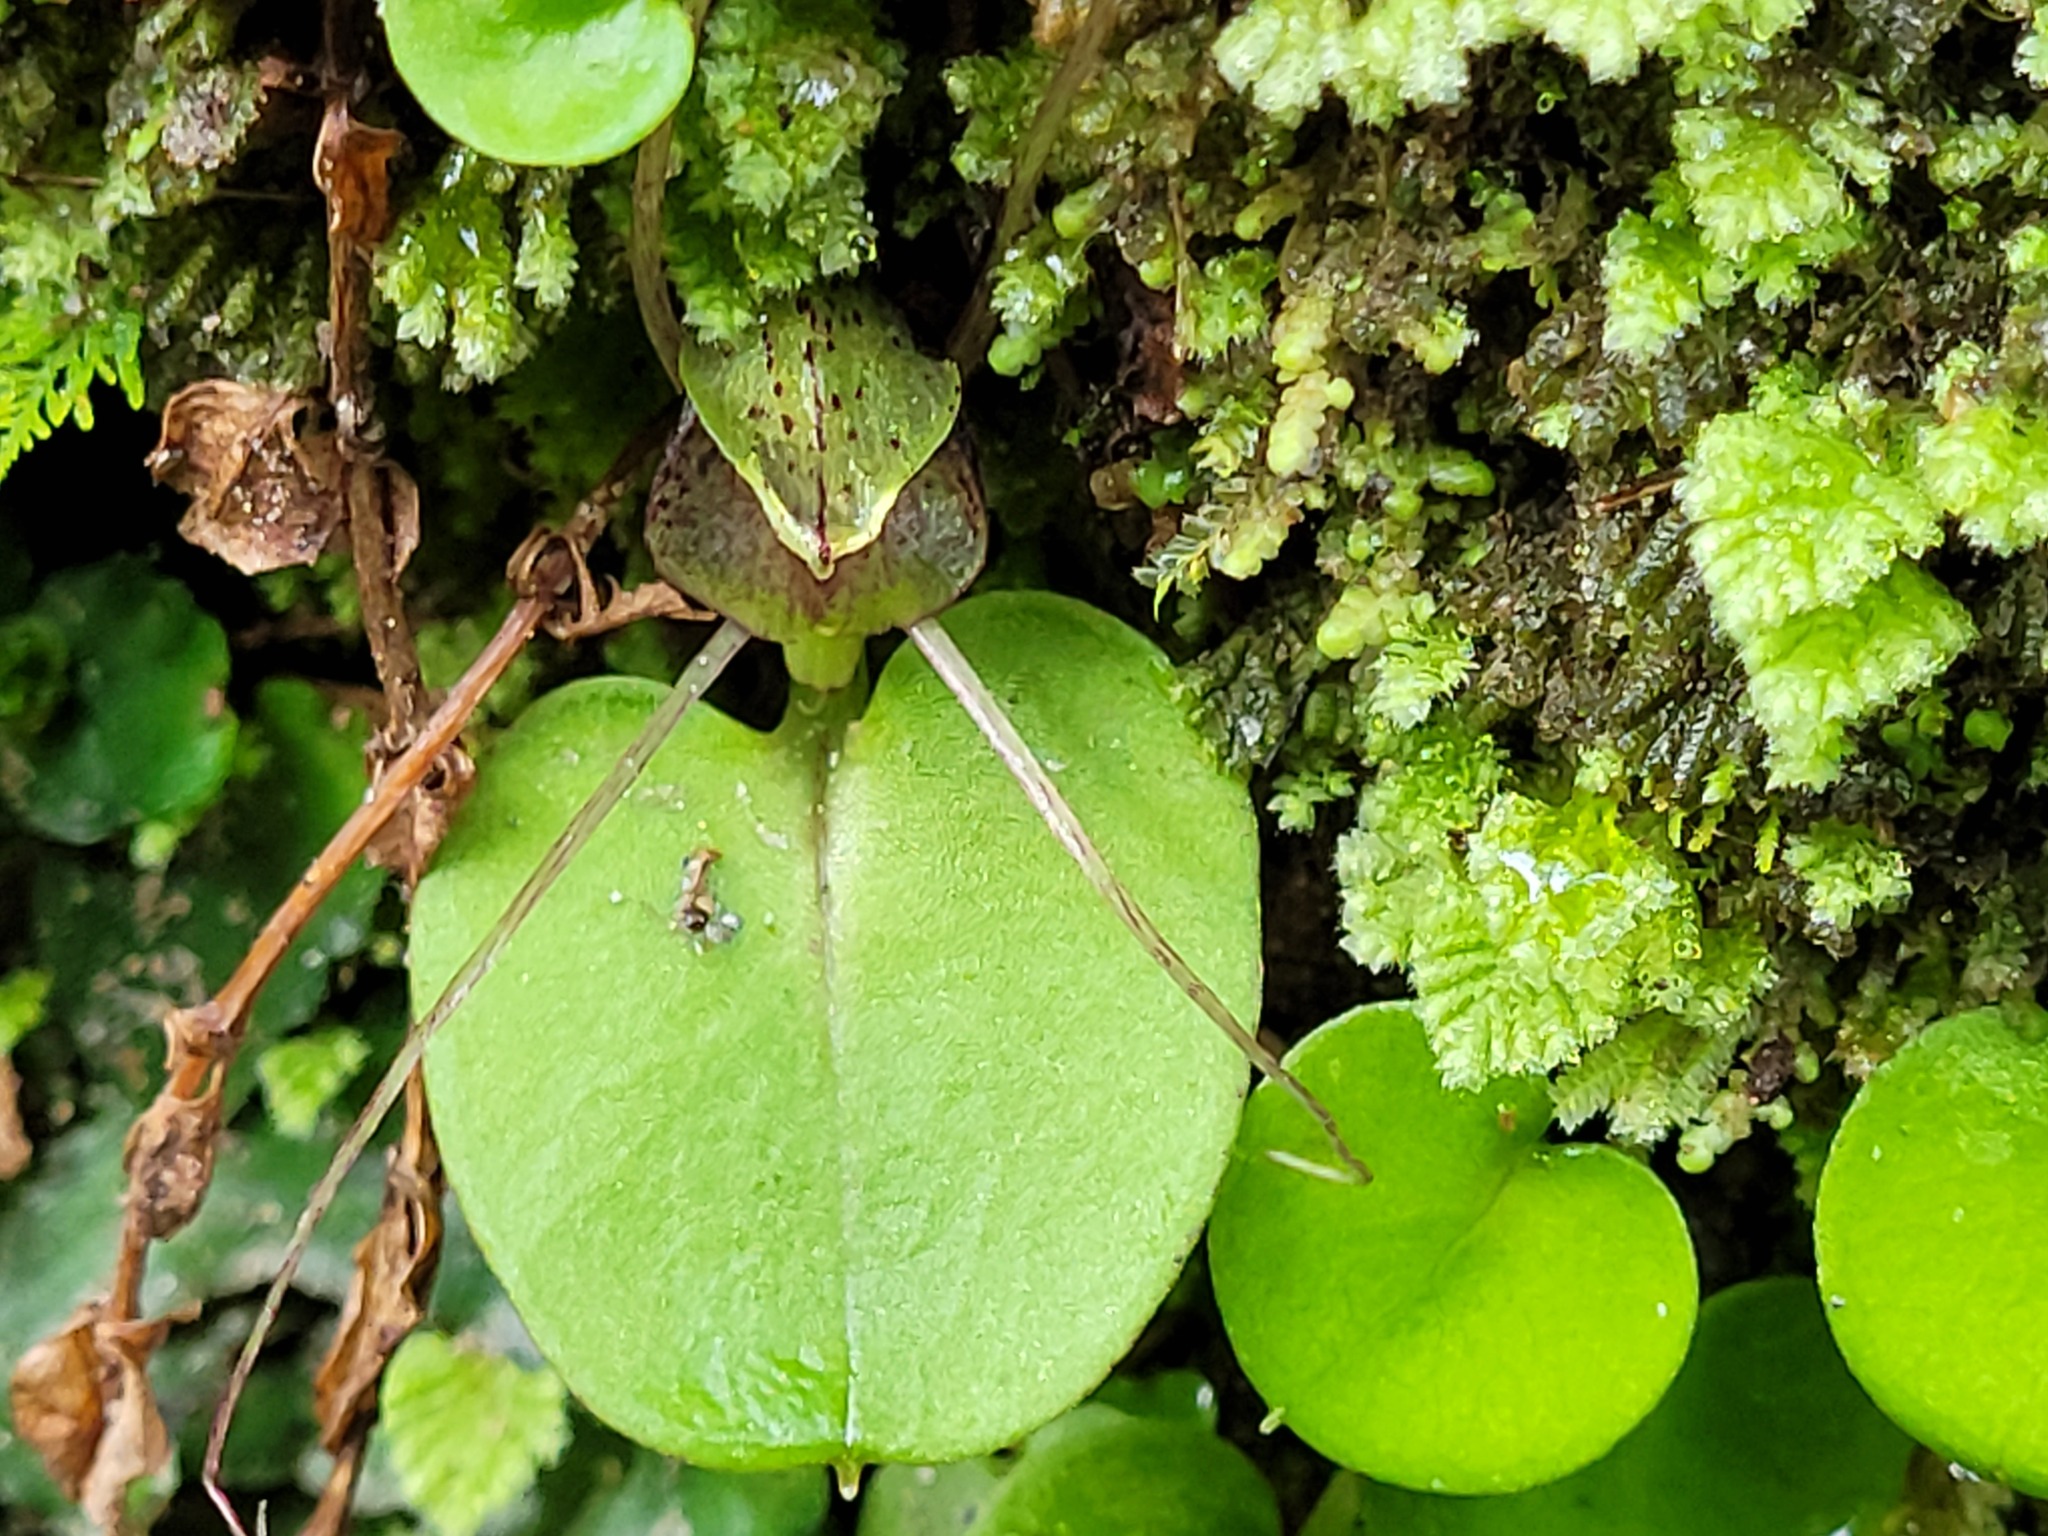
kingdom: Plantae
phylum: Tracheophyta
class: Liliopsida
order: Asparagales
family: Orchidaceae
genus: Corybas
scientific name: Corybas hatchii
